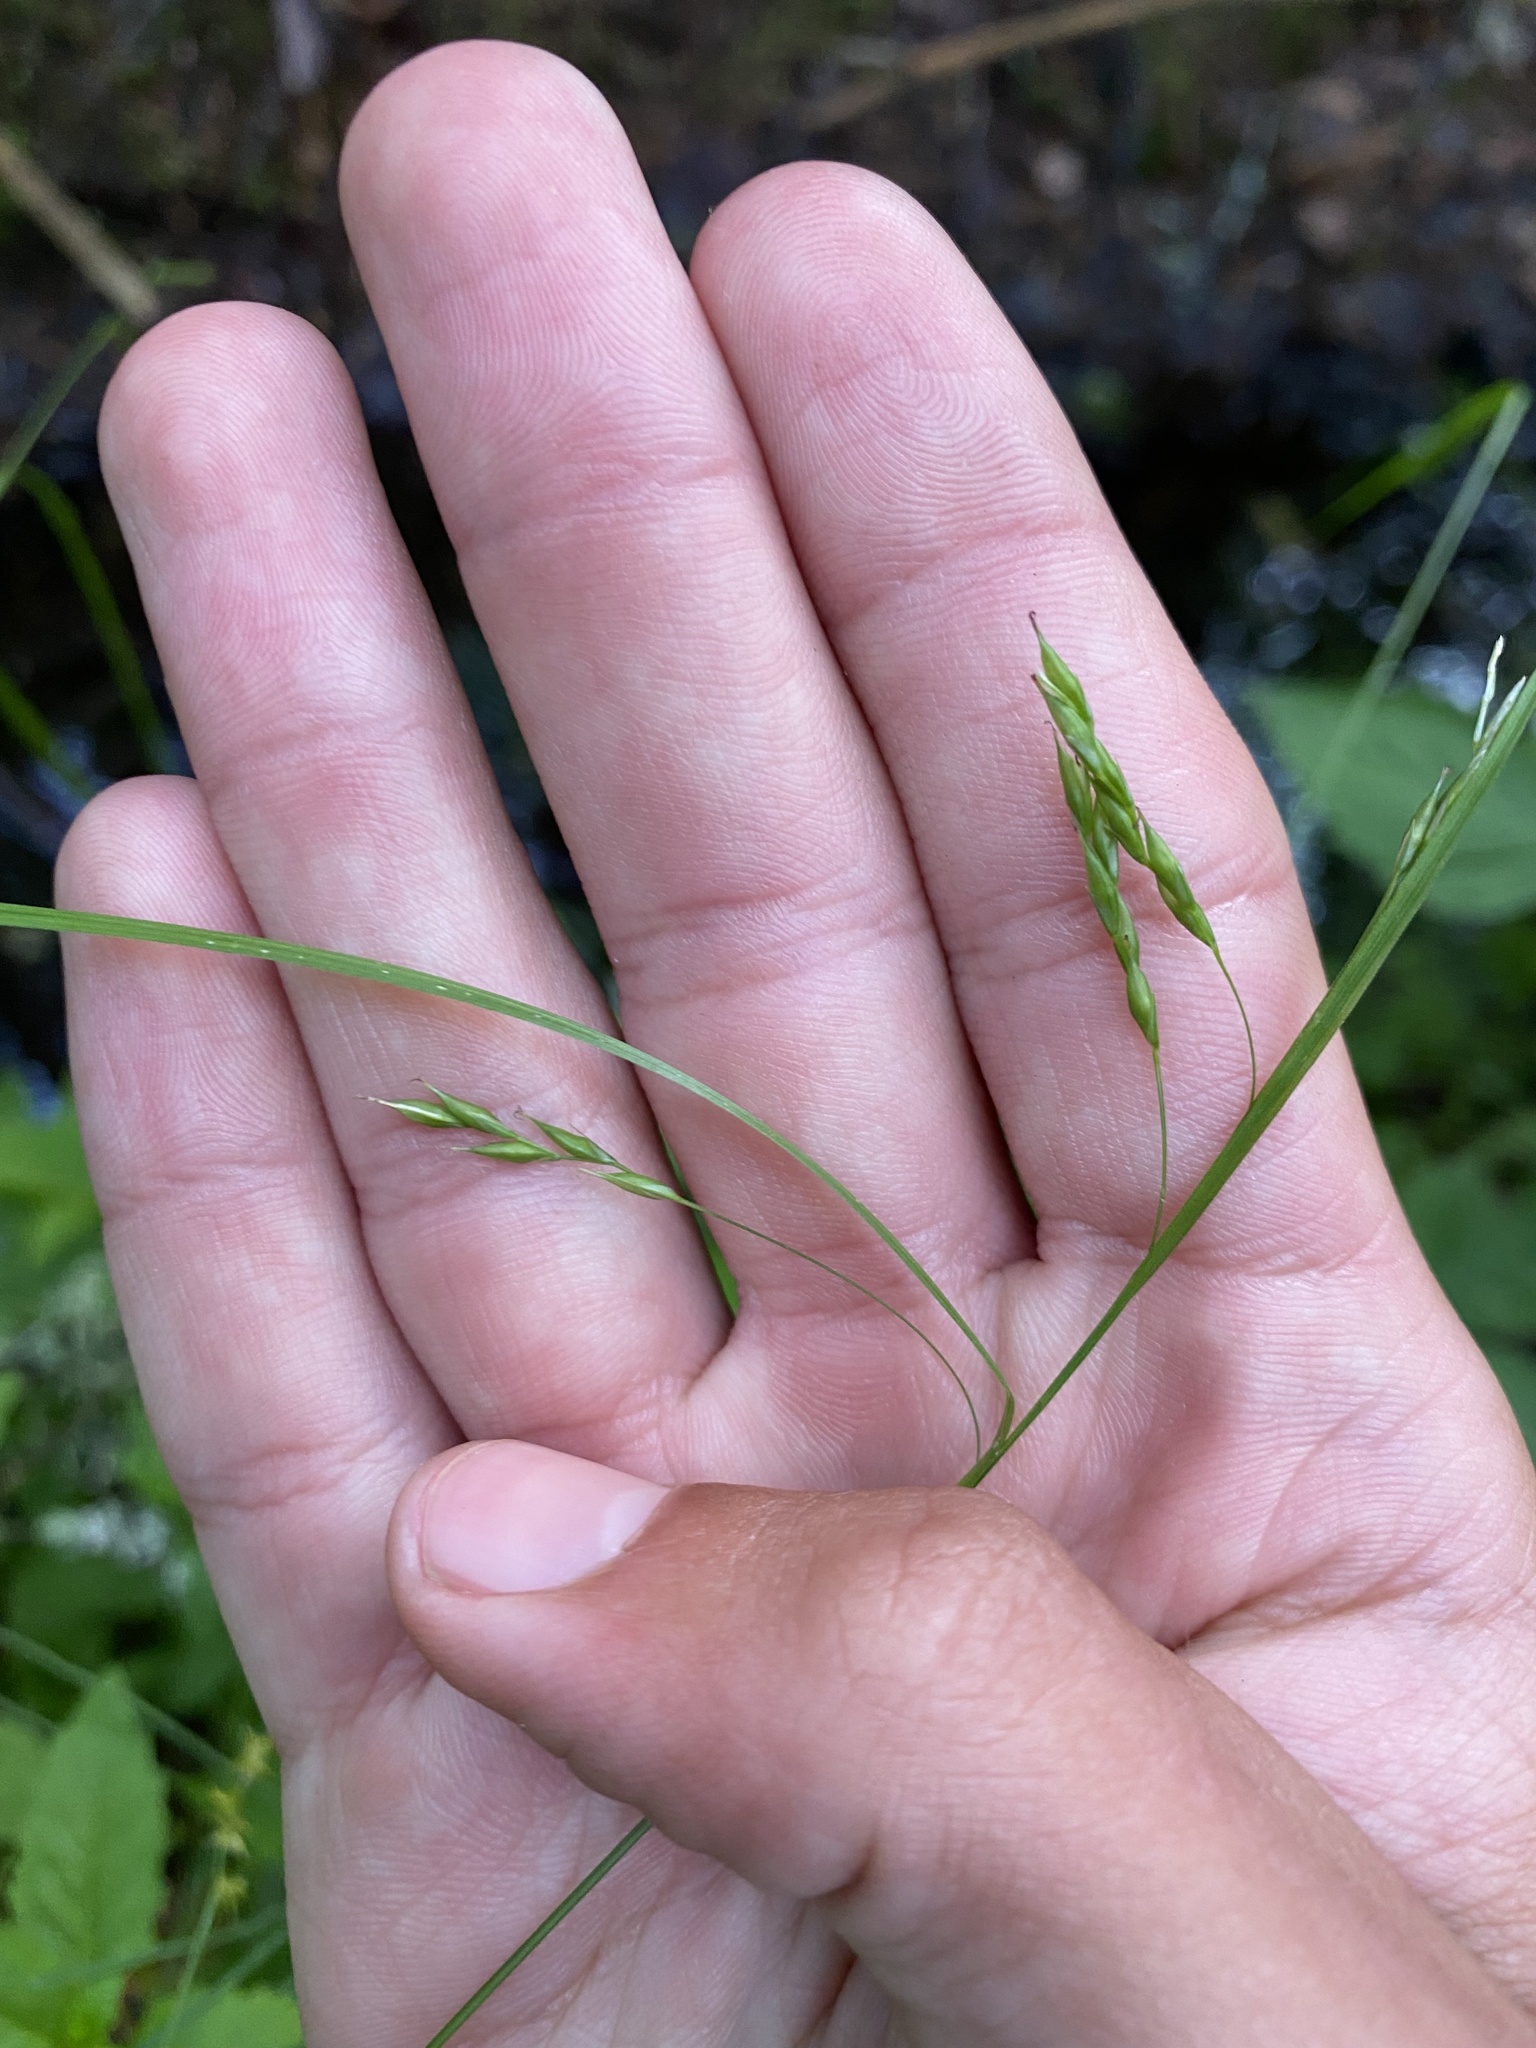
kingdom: Plantae
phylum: Tracheophyta
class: Liliopsida
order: Poales
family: Cyperaceae
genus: Carex
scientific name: Carex debilis
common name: White-edge sedge
